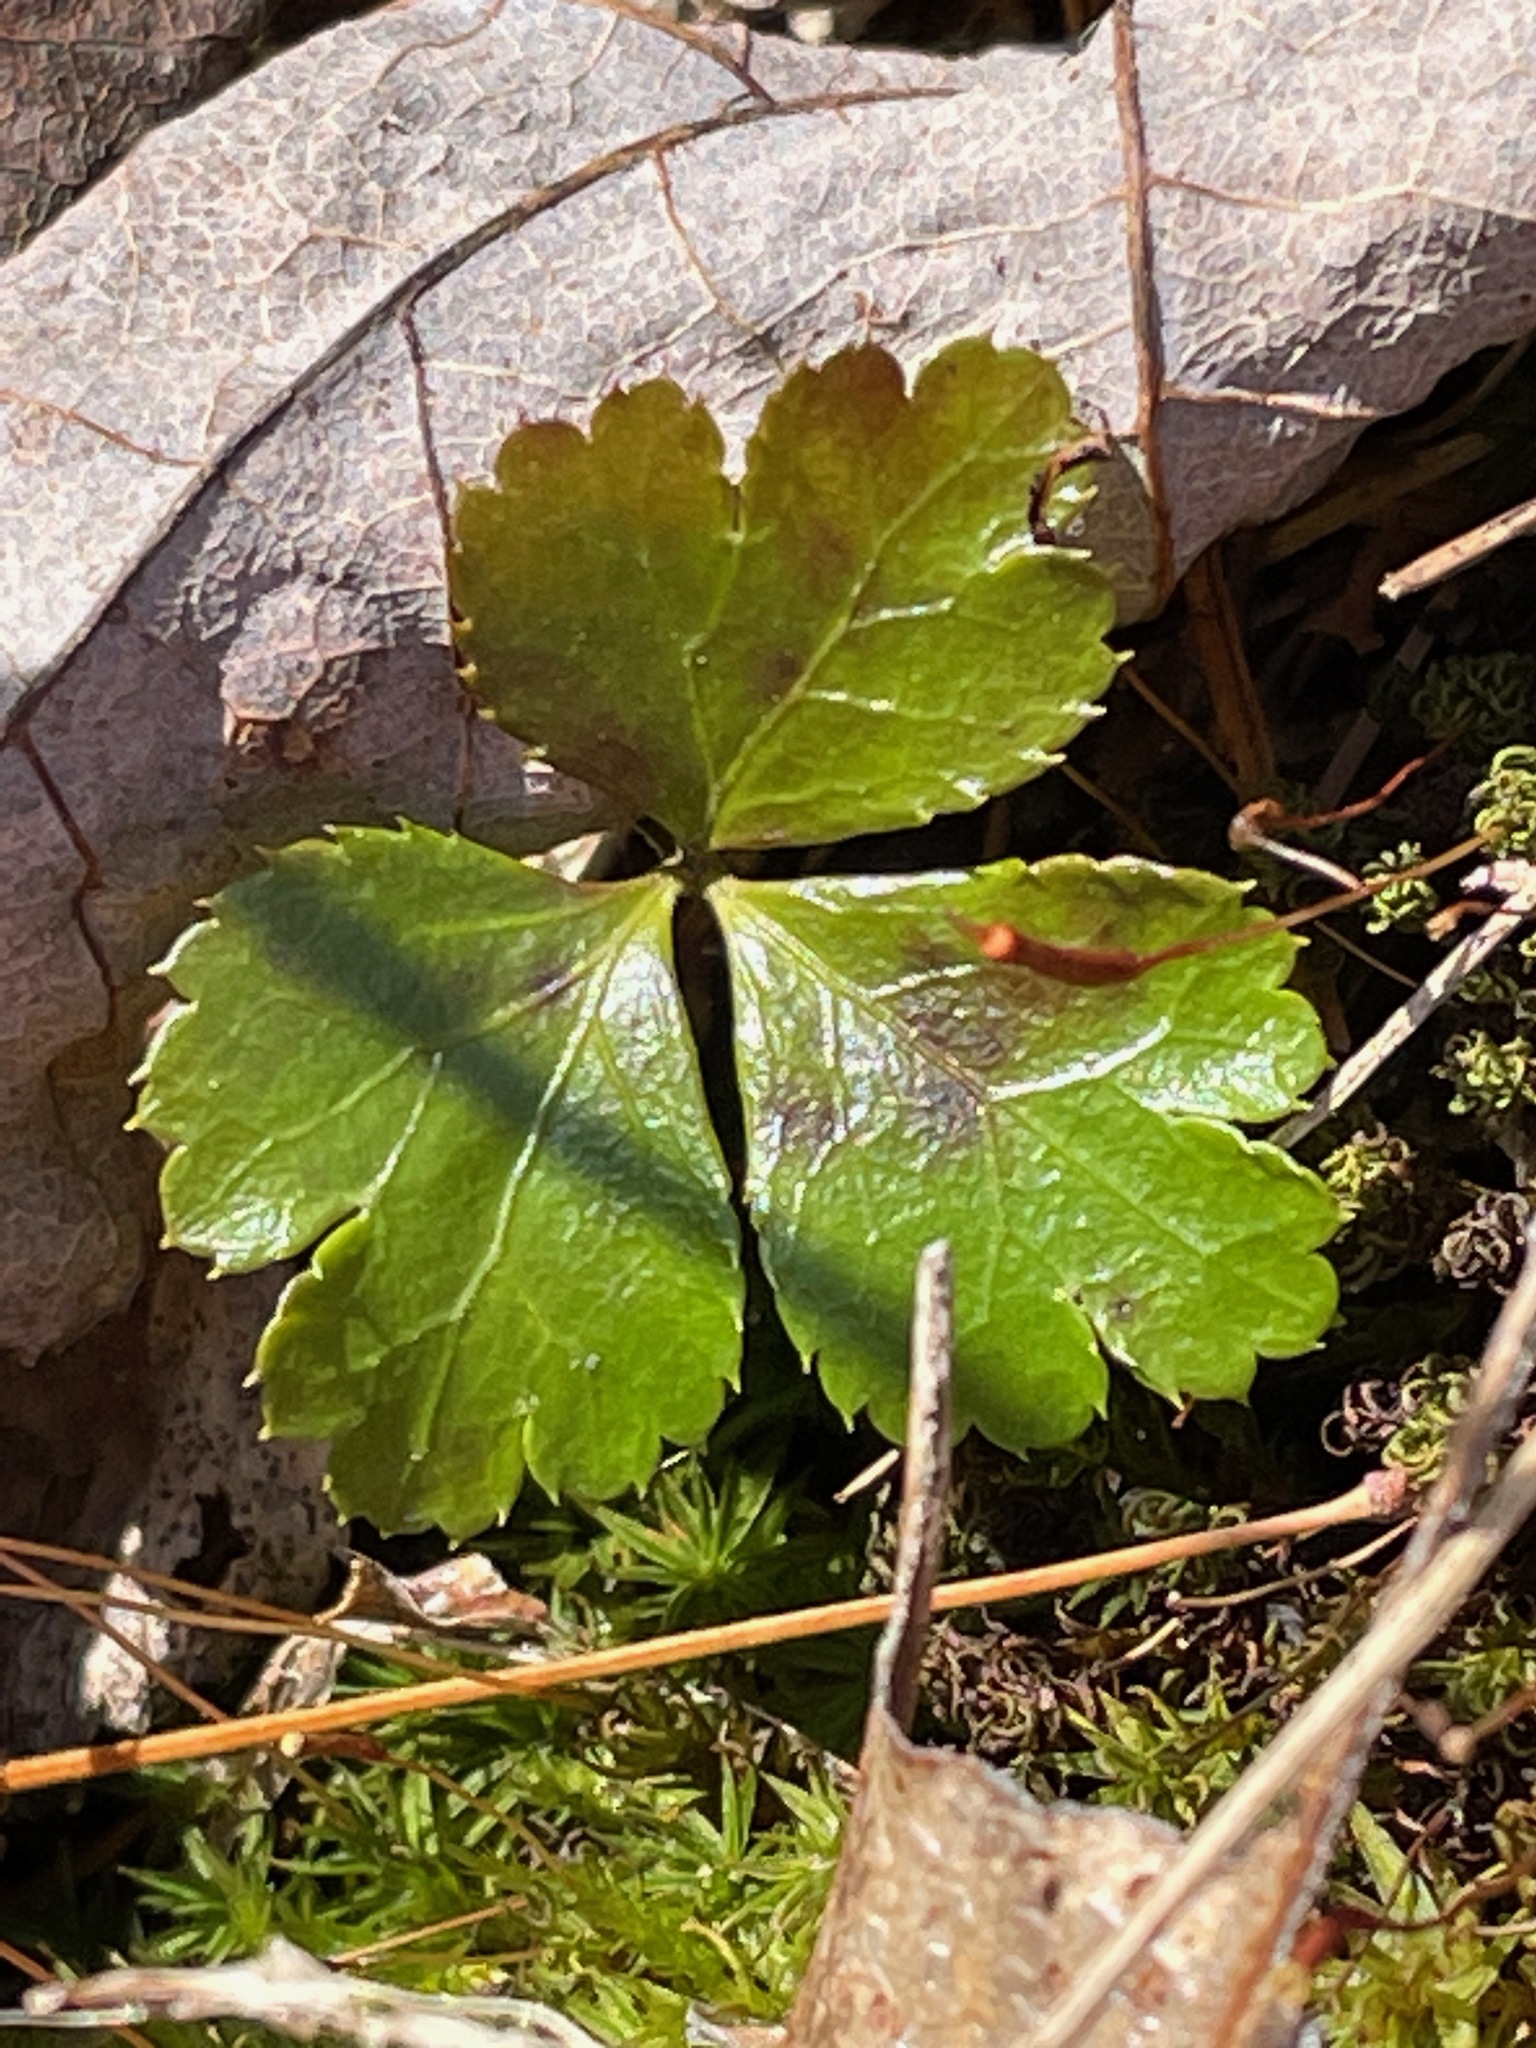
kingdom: Plantae
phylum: Tracheophyta
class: Magnoliopsida
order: Ranunculales
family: Ranunculaceae
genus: Coptis
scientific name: Coptis trifolia
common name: Canker-root
